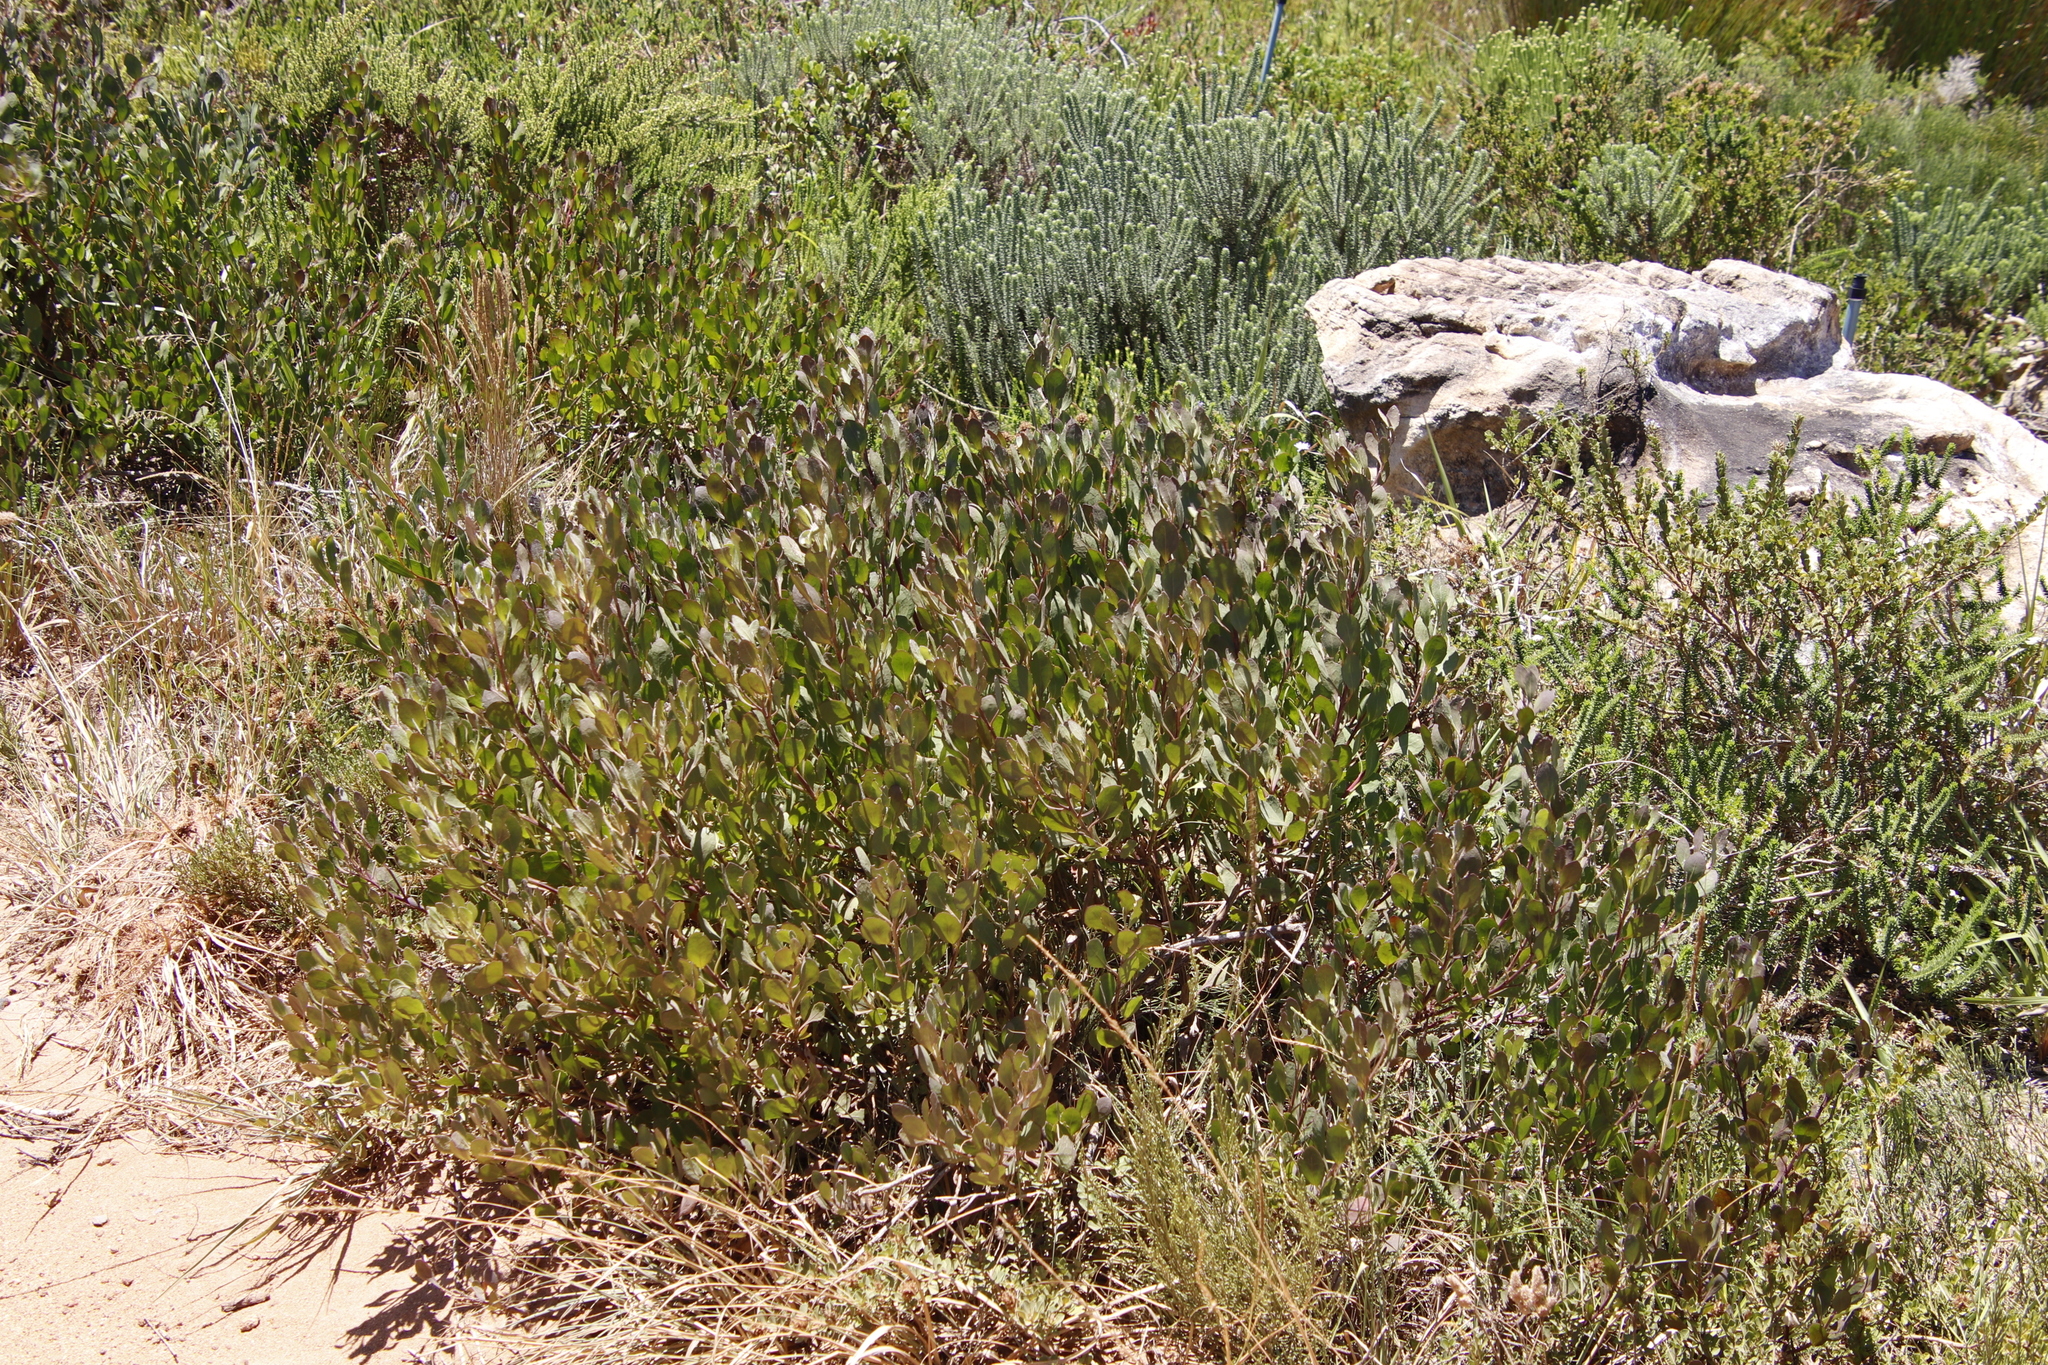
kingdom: Plantae
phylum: Tracheophyta
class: Magnoliopsida
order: Asterales
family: Asteraceae
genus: Osteospermum
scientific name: Osteospermum moniliferum
